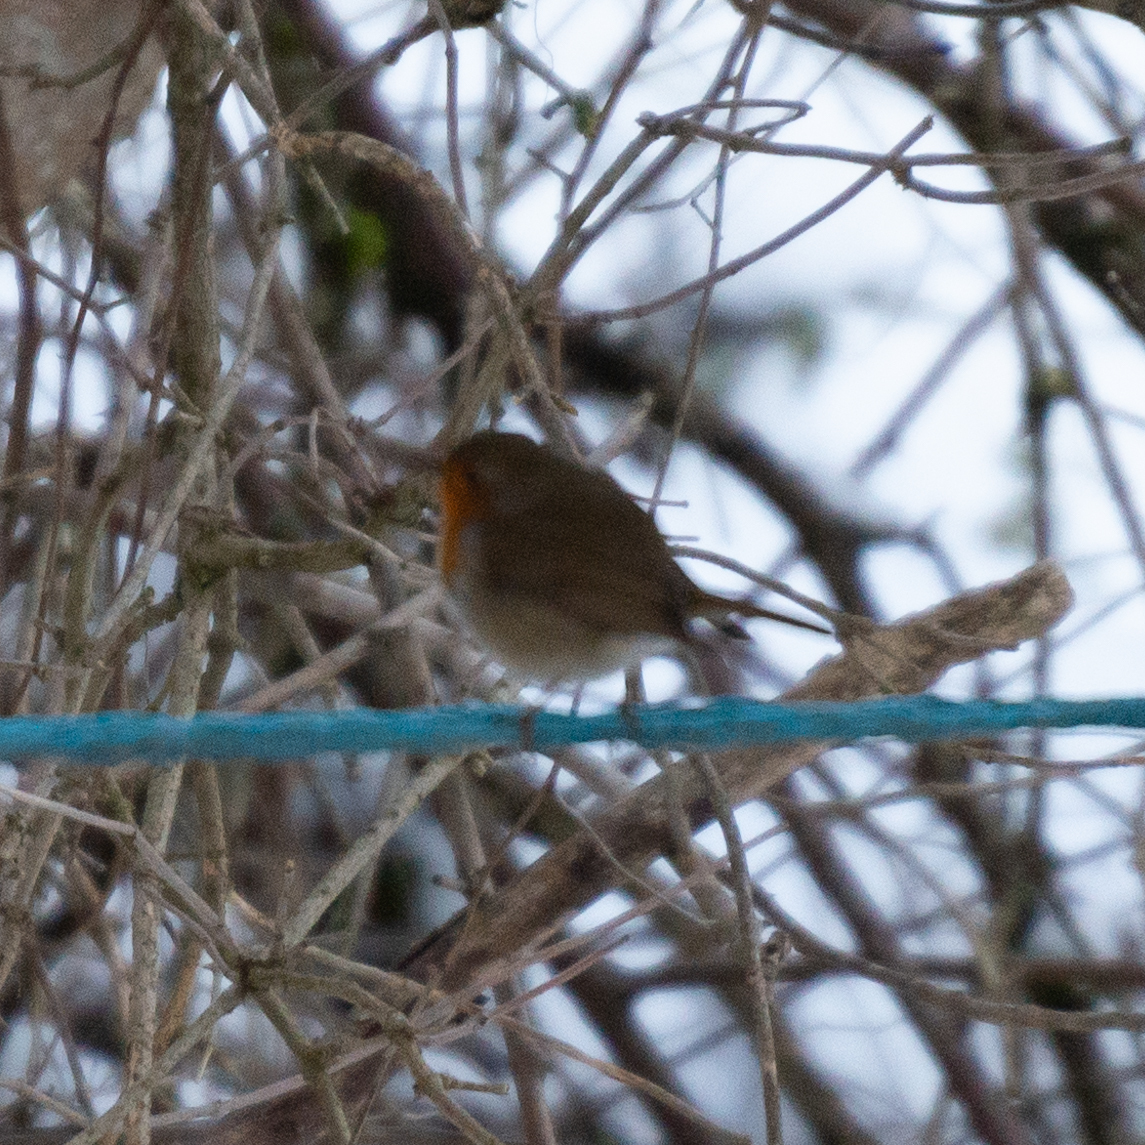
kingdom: Animalia
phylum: Chordata
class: Aves
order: Passeriformes
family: Muscicapidae
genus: Erithacus
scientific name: Erithacus rubecula
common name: European robin
